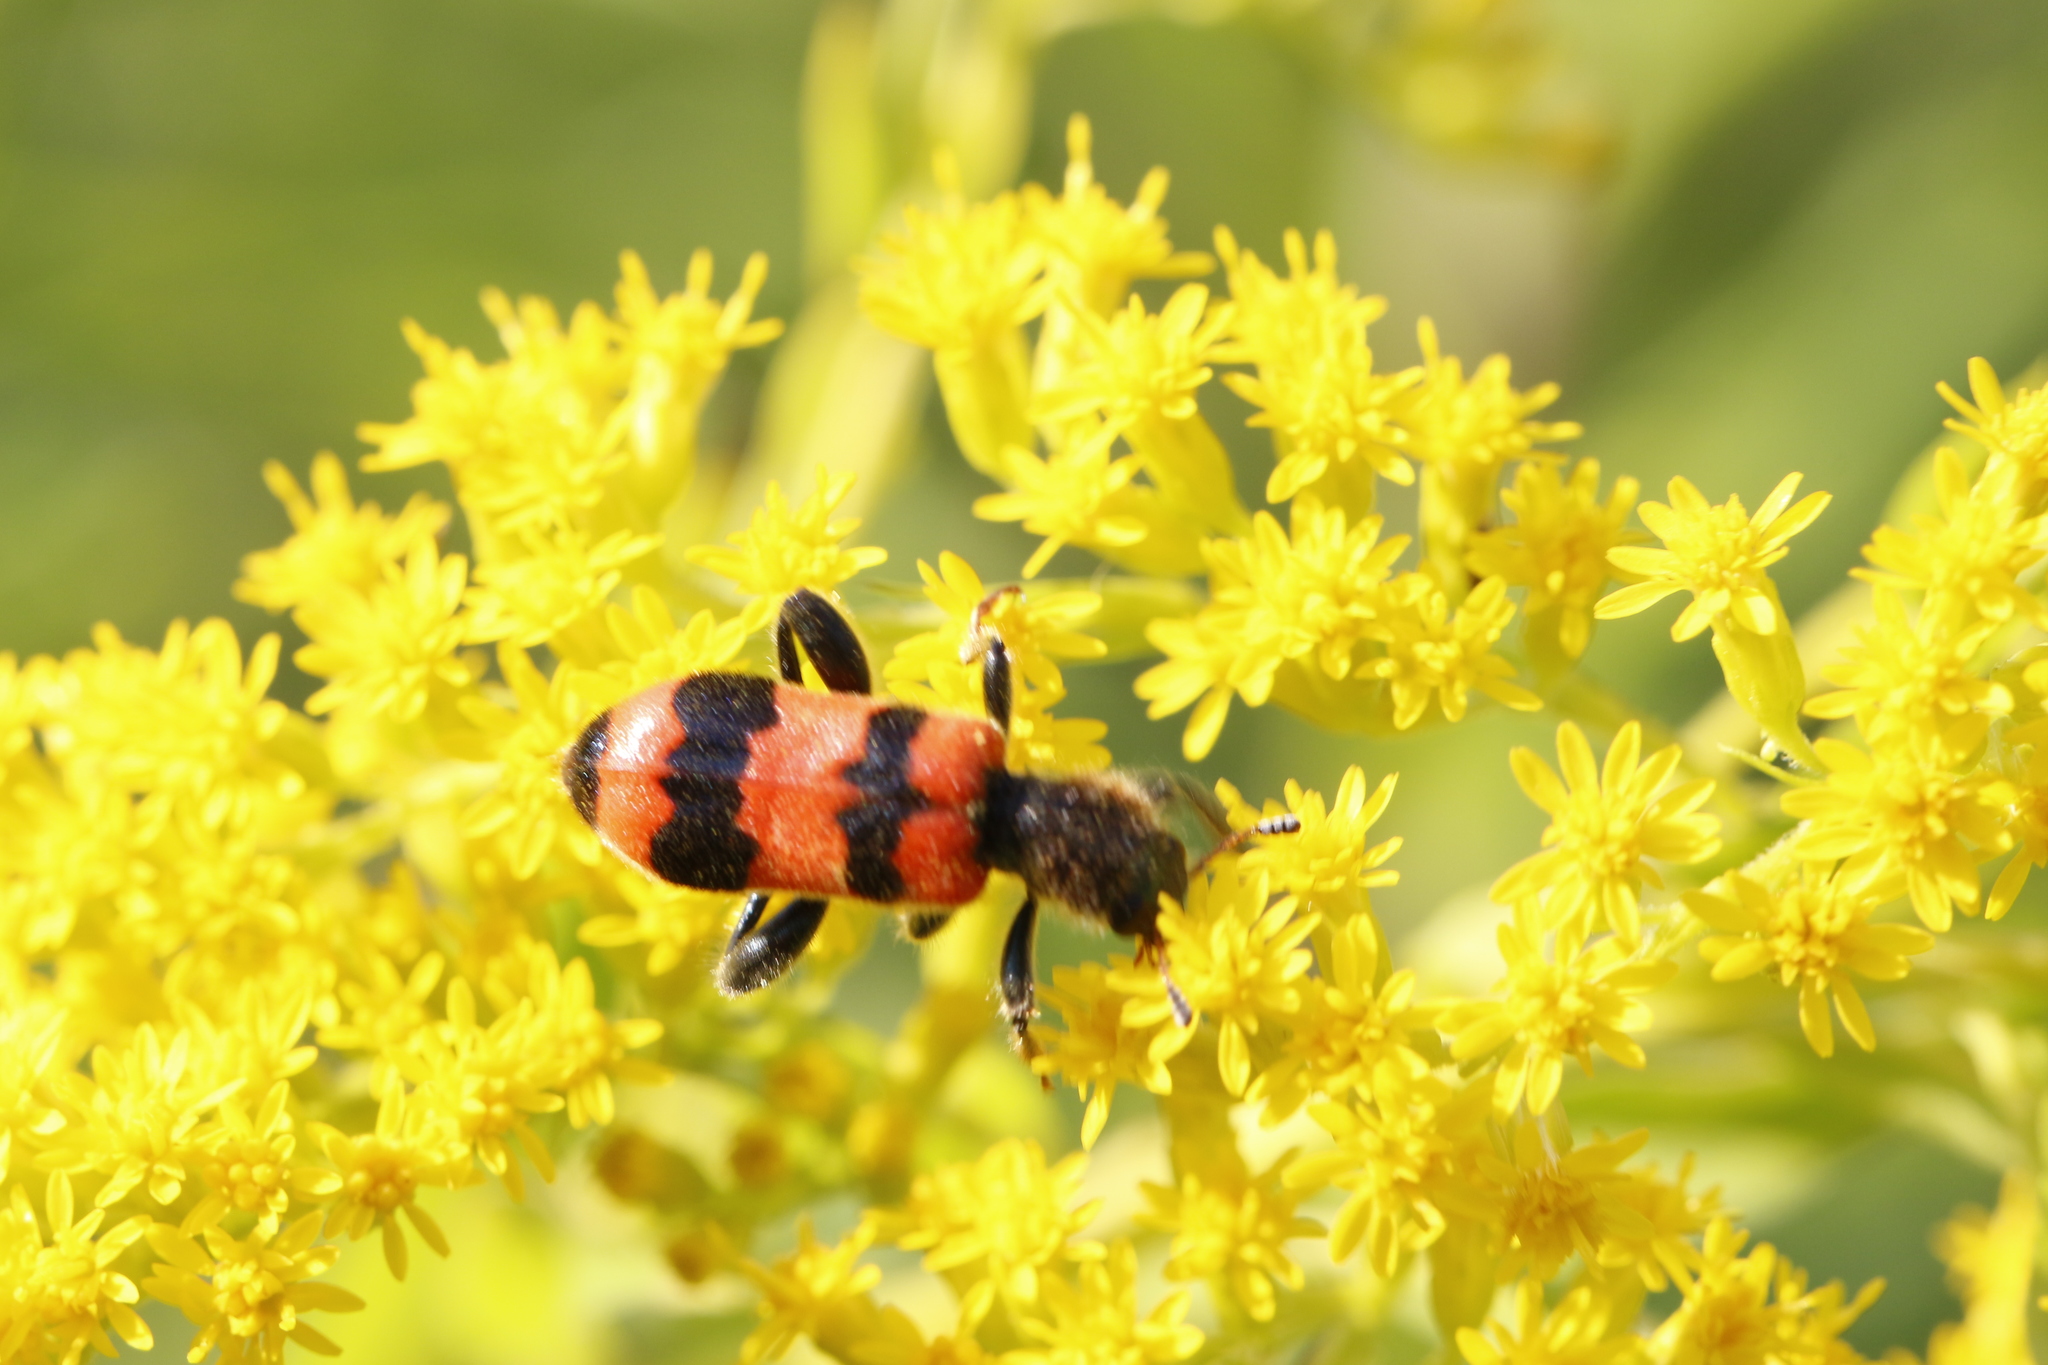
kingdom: Animalia
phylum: Arthropoda
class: Insecta
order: Coleoptera
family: Cleridae
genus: Trichodes
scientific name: Trichodes apiarius
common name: Bee-eating beetle
